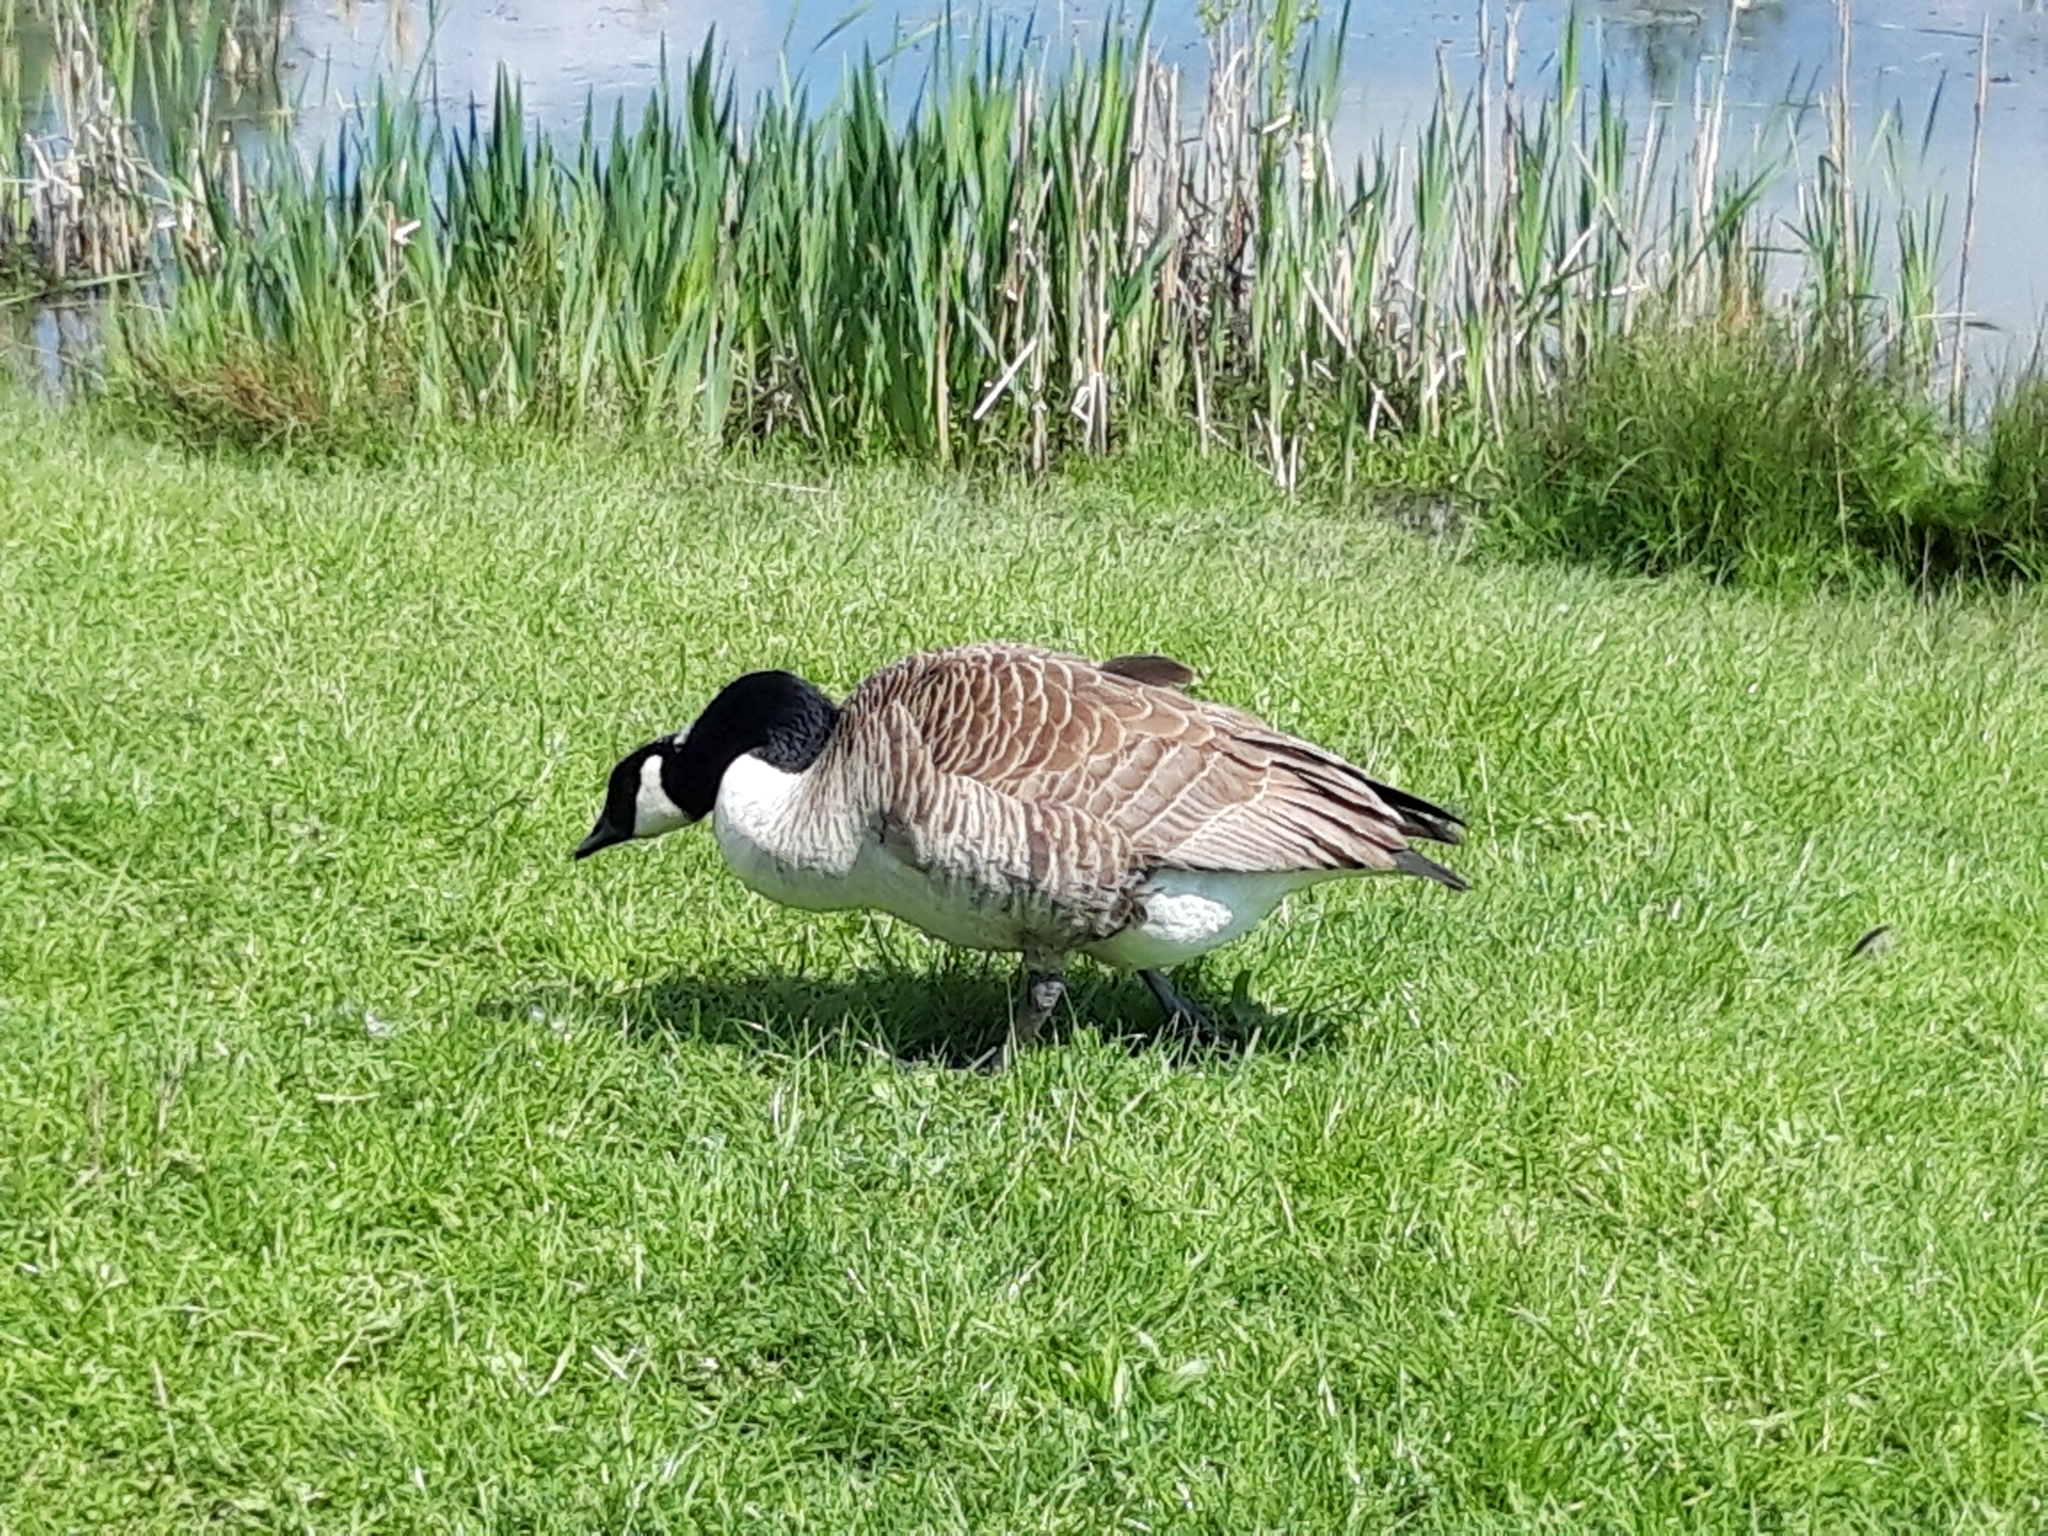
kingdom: Animalia
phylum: Chordata
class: Aves
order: Anseriformes
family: Anatidae
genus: Branta
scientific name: Branta canadensis
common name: Canada goose
